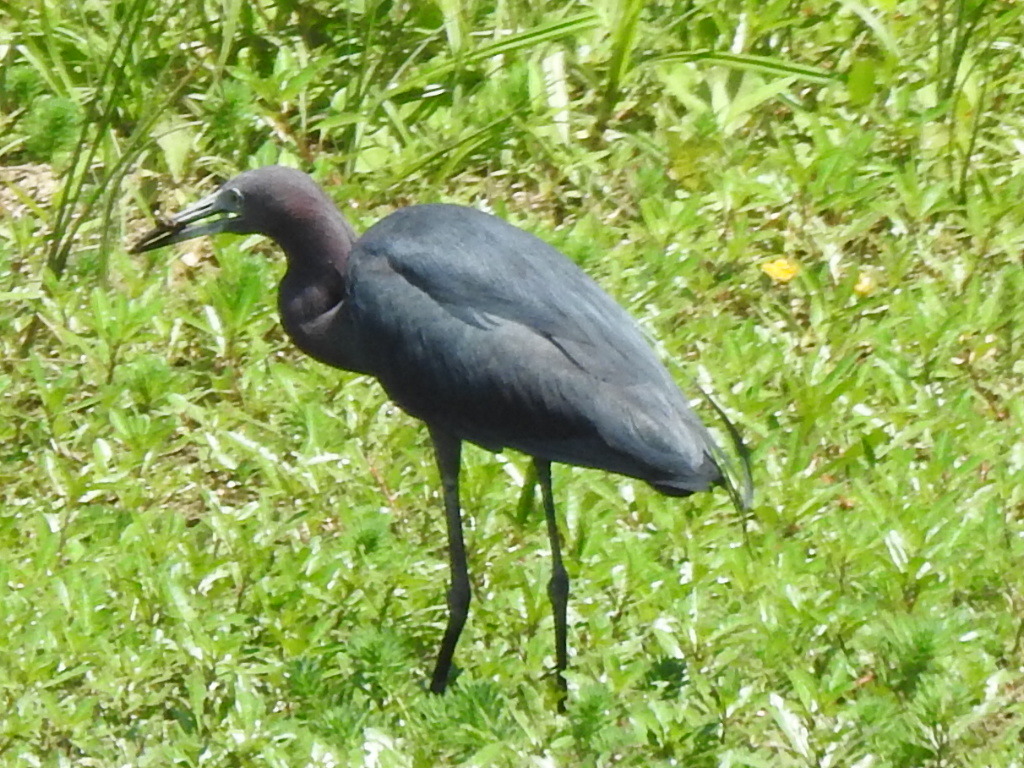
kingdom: Animalia
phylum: Chordata
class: Aves
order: Pelecaniformes
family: Ardeidae
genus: Egretta
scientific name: Egretta caerulea
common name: Little blue heron
